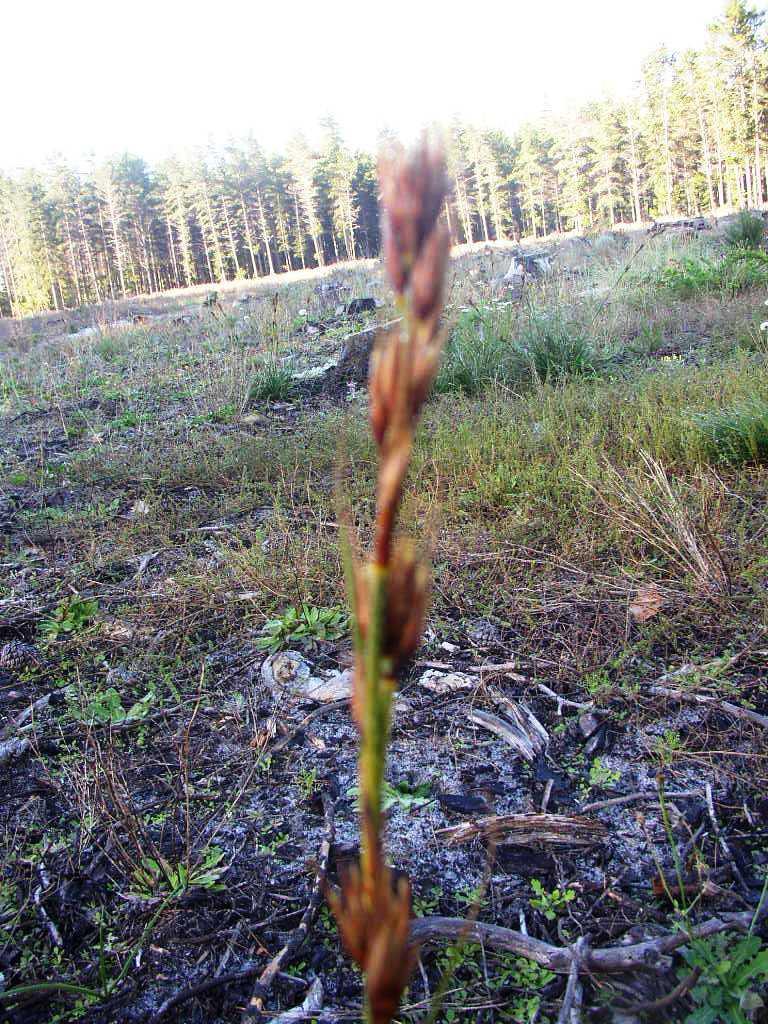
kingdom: Plantae
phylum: Tracheophyta
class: Liliopsida
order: Poales
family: Cyperaceae
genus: Tetraria
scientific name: Tetraria eximia
